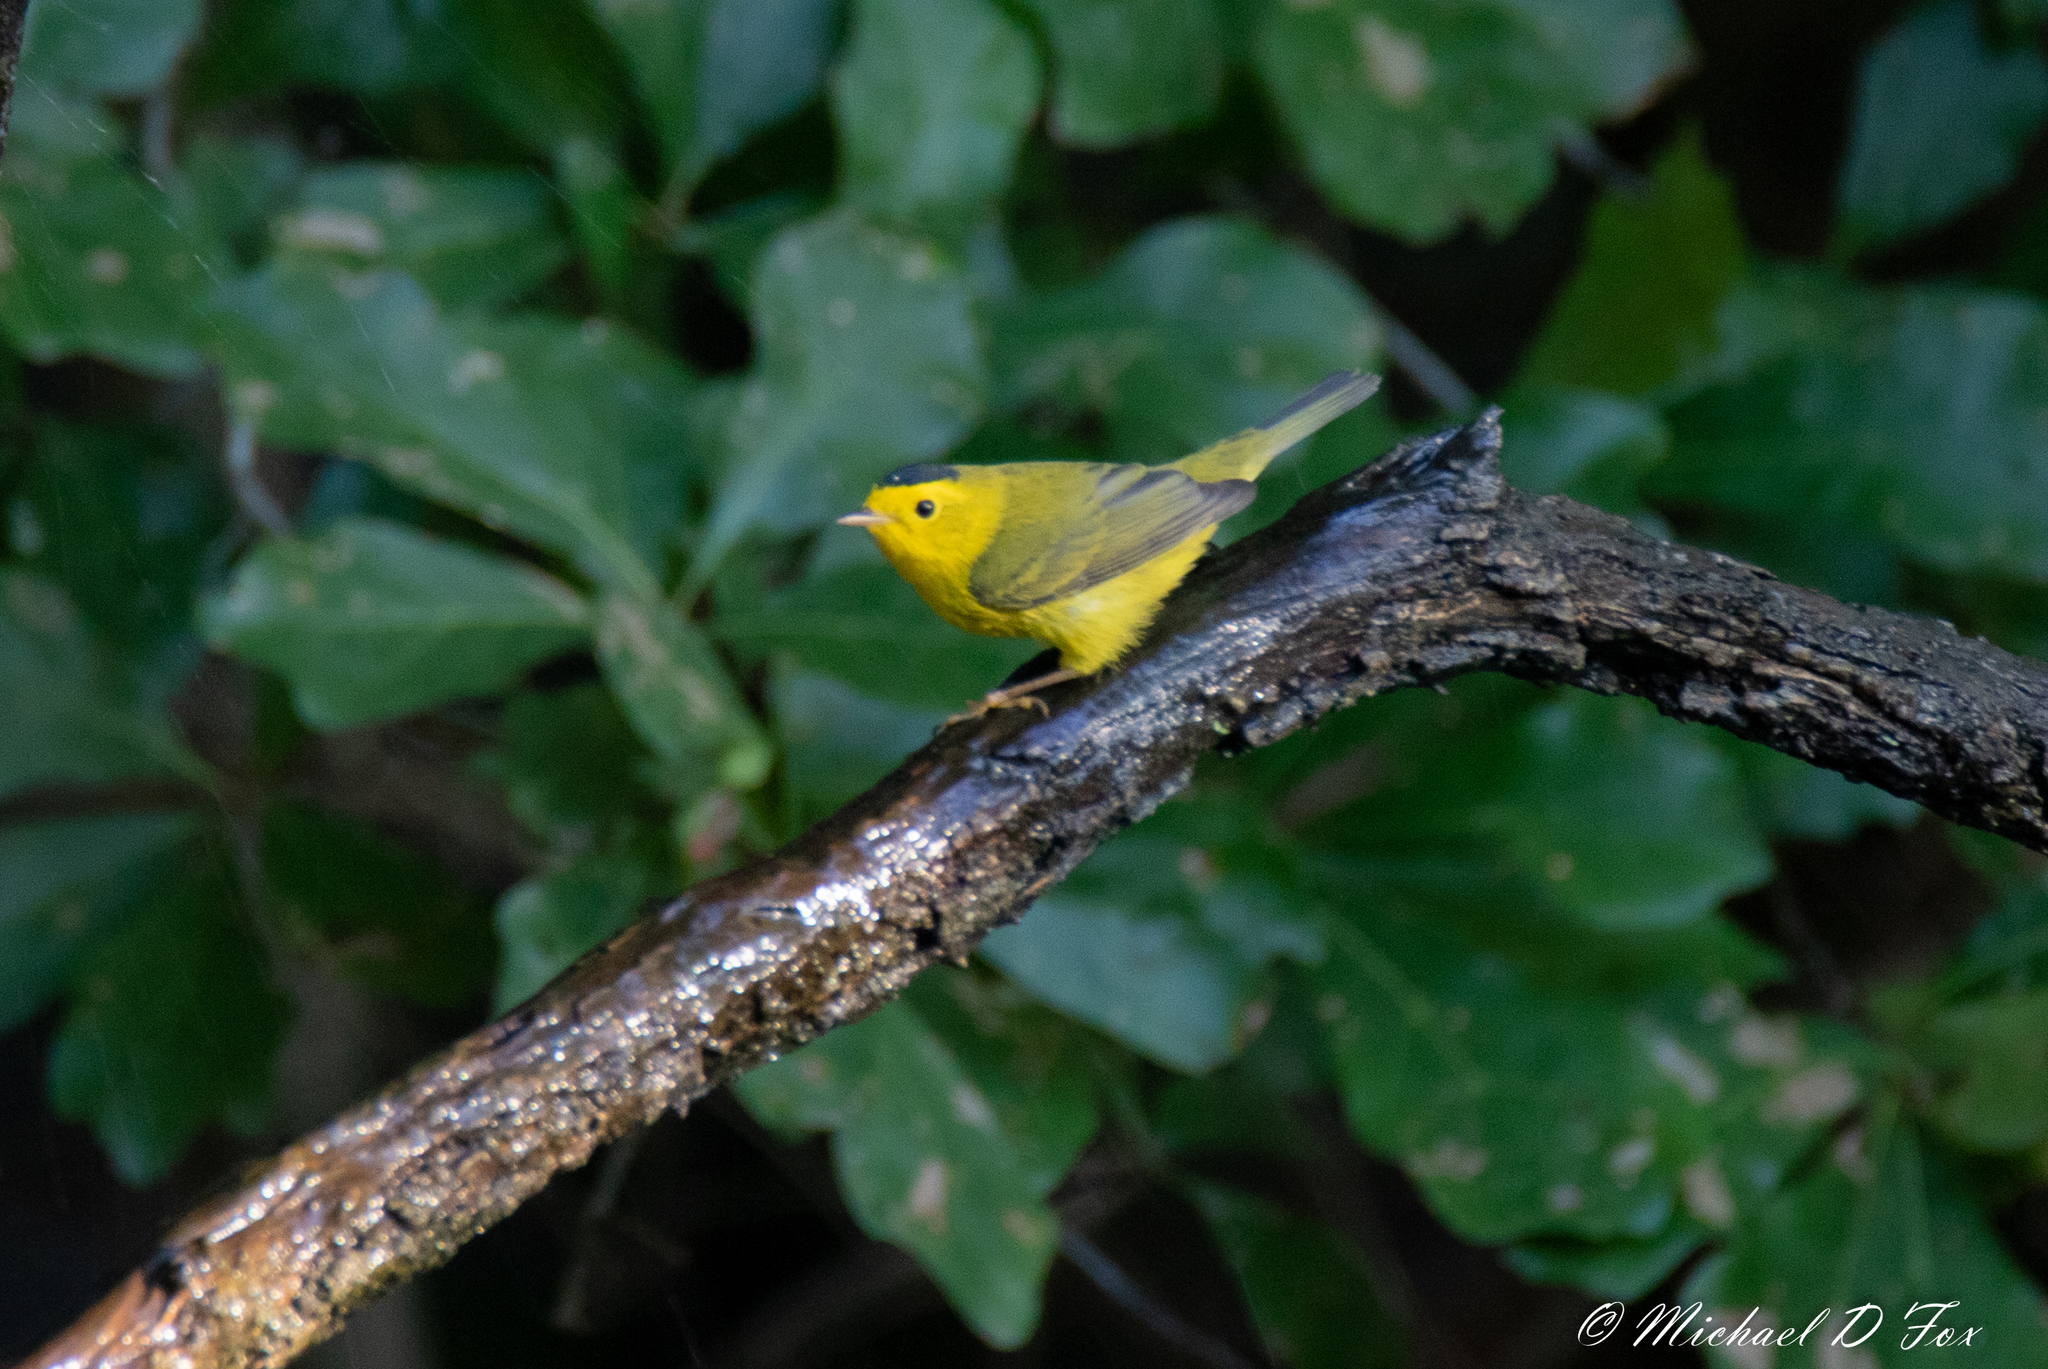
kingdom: Animalia
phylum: Chordata
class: Aves
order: Passeriformes
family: Parulidae
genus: Cardellina
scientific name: Cardellina pusilla
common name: Wilson's warbler
